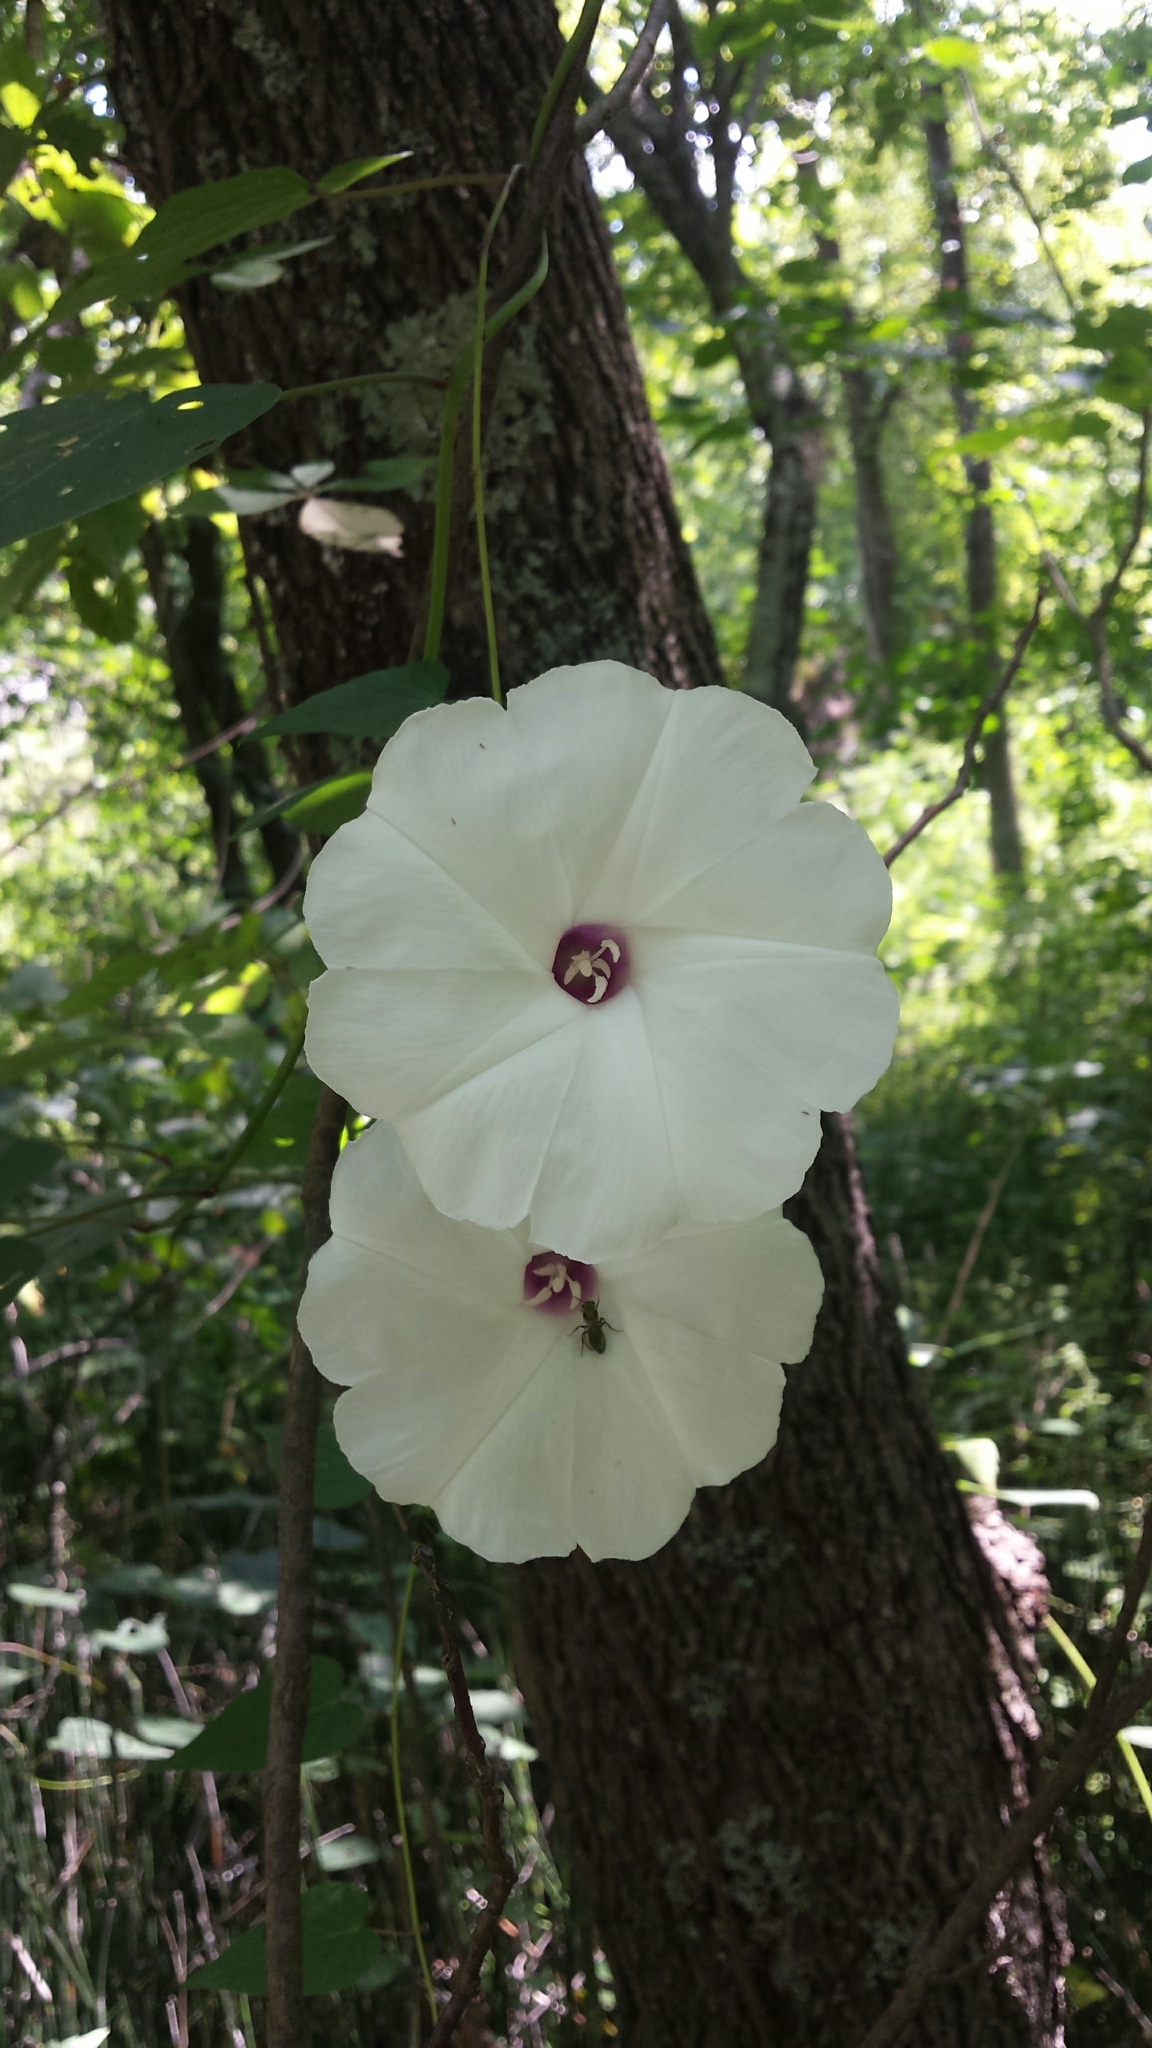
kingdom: Plantae
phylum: Tracheophyta
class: Magnoliopsida
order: Solanales
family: Convolvulaceae
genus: Ipomoea
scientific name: Ipomoea pandurata
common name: Man-of-the-earth
